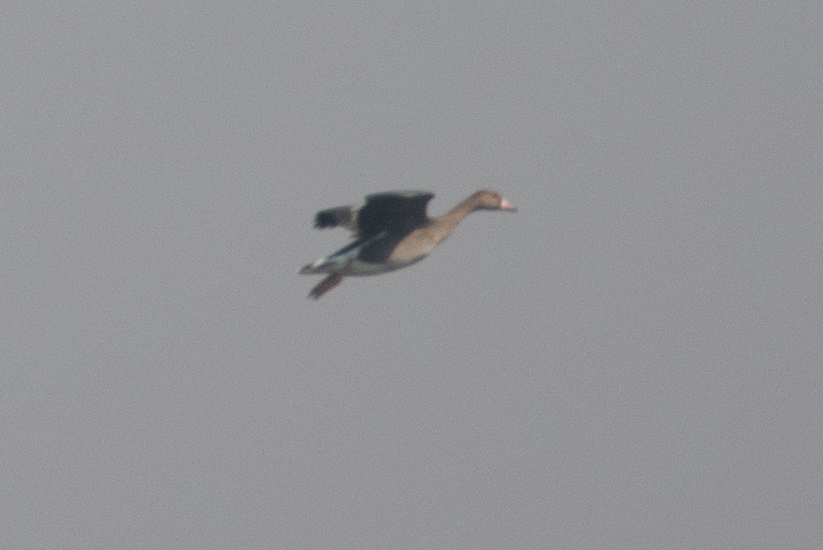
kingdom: Animalia
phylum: Chordata
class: Aves
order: Anseriformes
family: Anatidae
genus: Anser
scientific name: Anser albifrons
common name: Greater white-fronted goose
